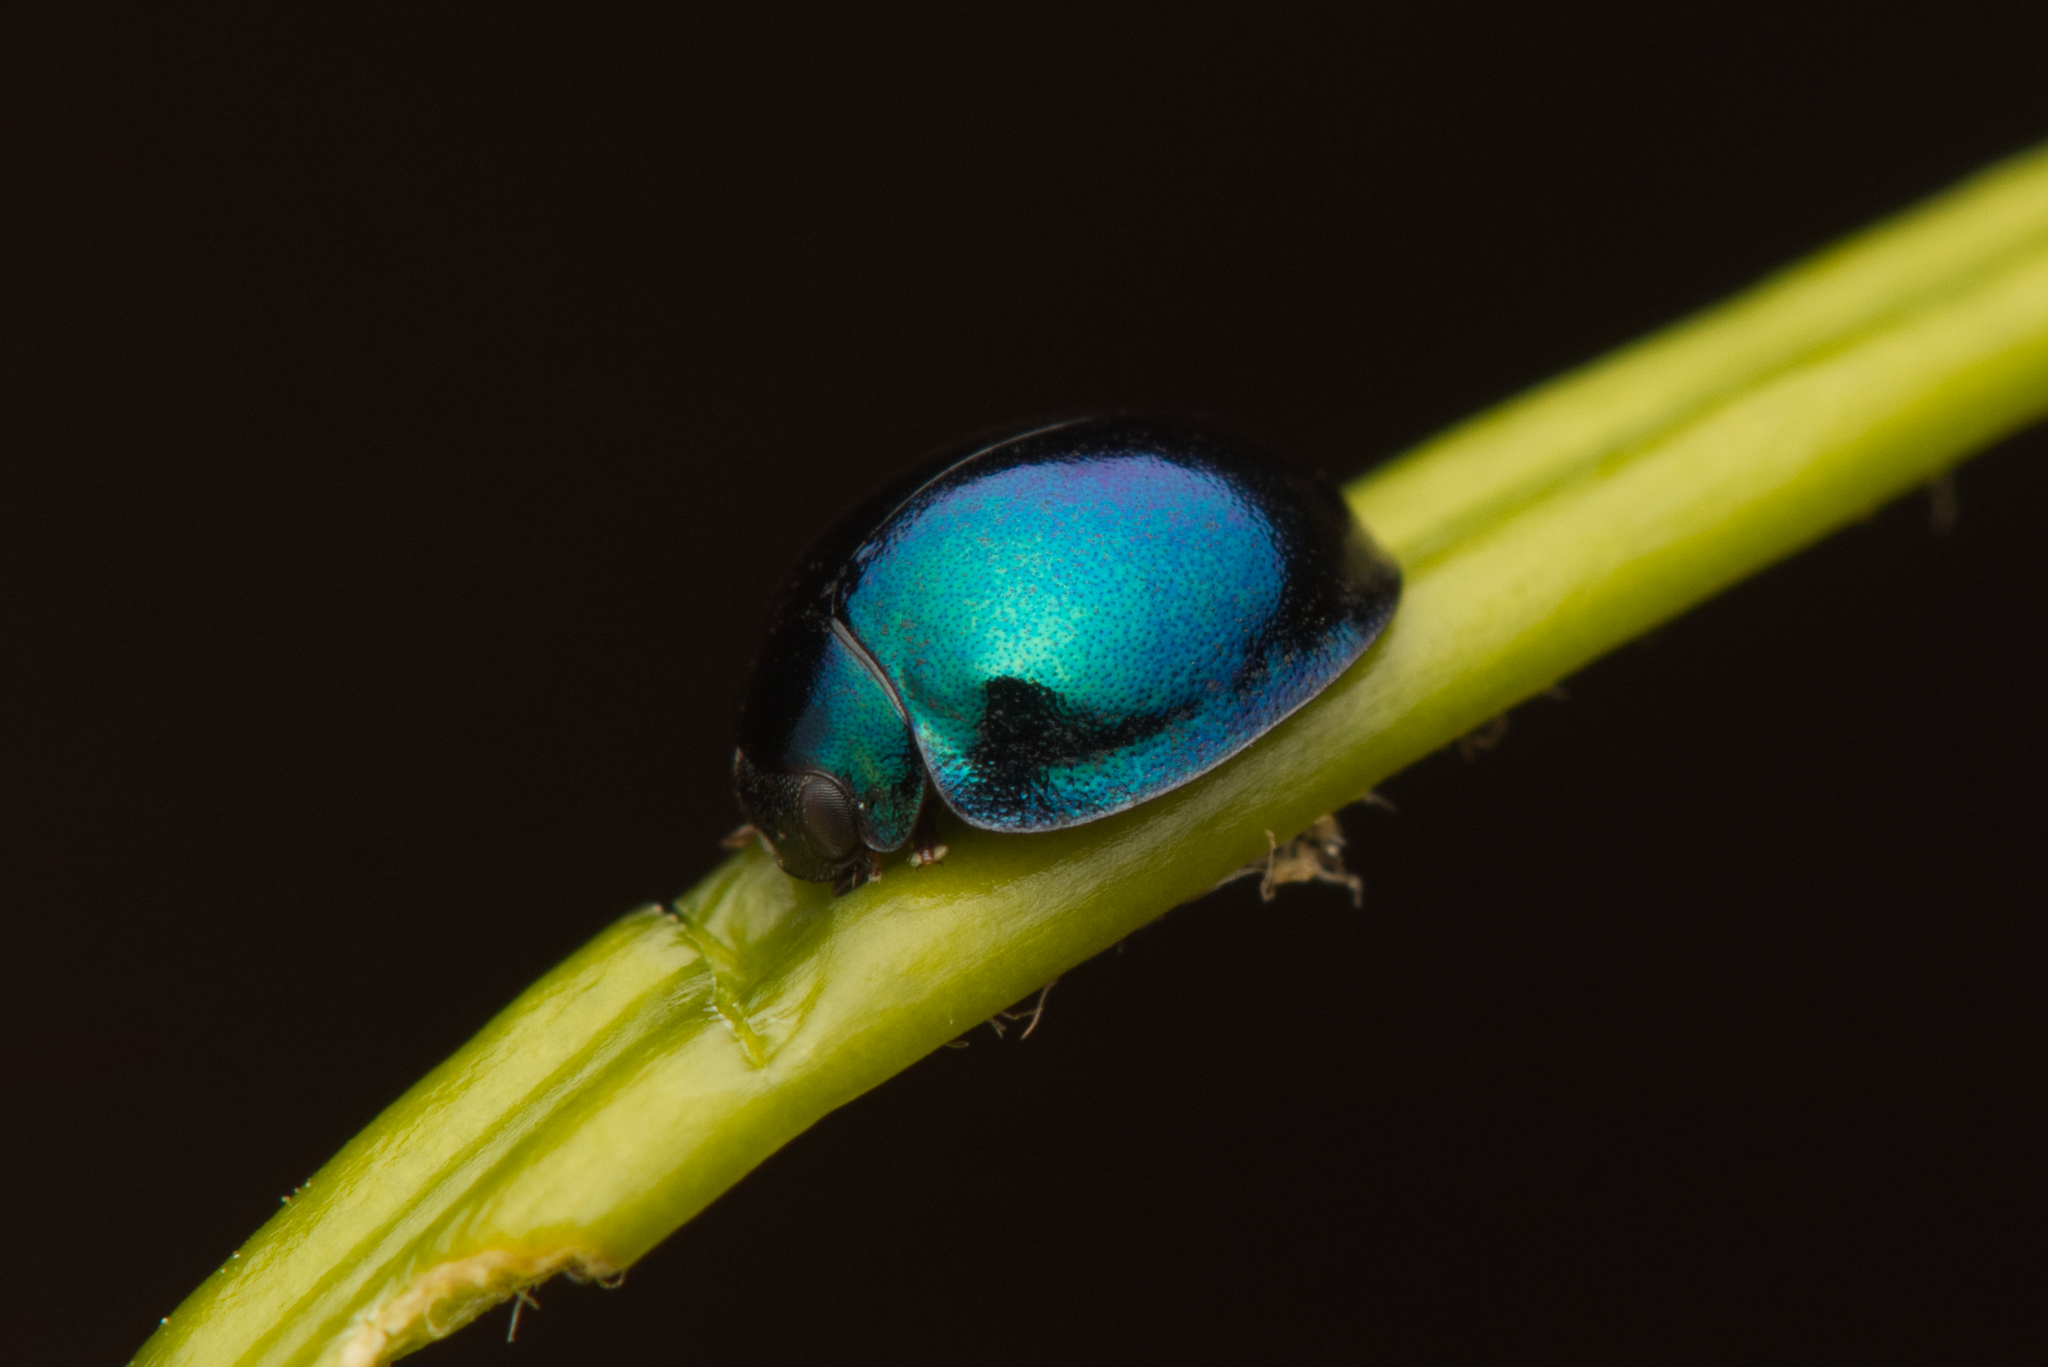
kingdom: Animalia
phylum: Arthropoda
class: Insecta
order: Coleoptera
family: Coccinellidae
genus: Halmus
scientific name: Halmus chalybeus
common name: Steel blue ladybird beetle
